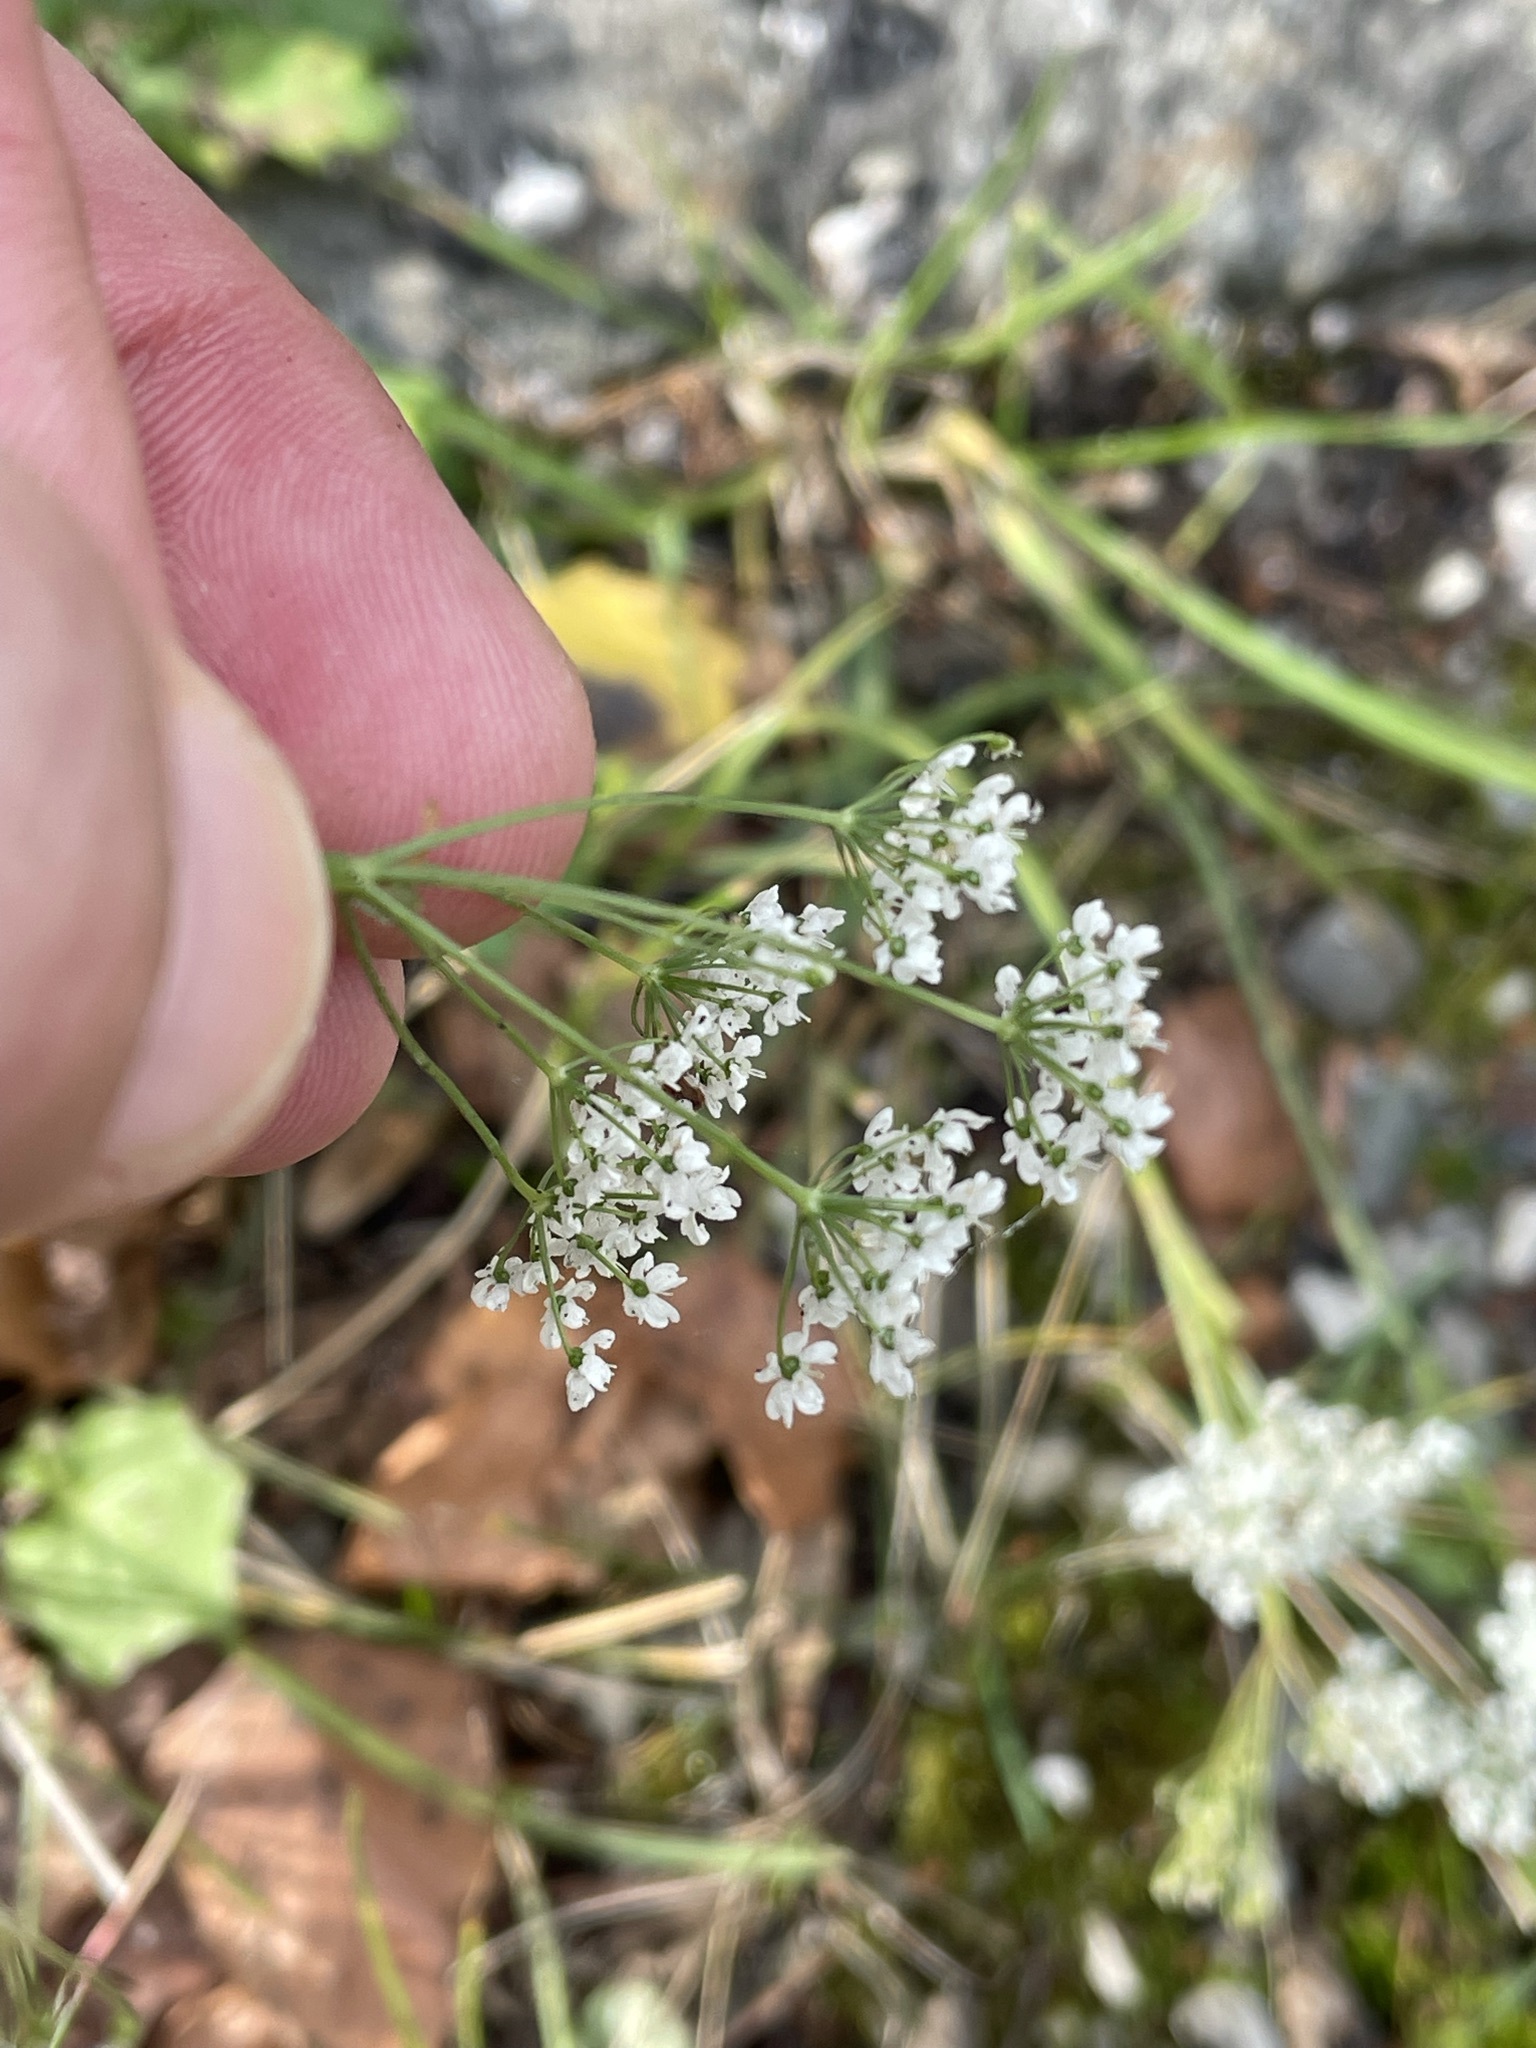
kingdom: Plantae
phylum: Tracheophyta
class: Magnoliopsida
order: Apiales
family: Apiaceae
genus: Pimpinella
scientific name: Pimpinella saxifraga
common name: Burnet-saxifrage
